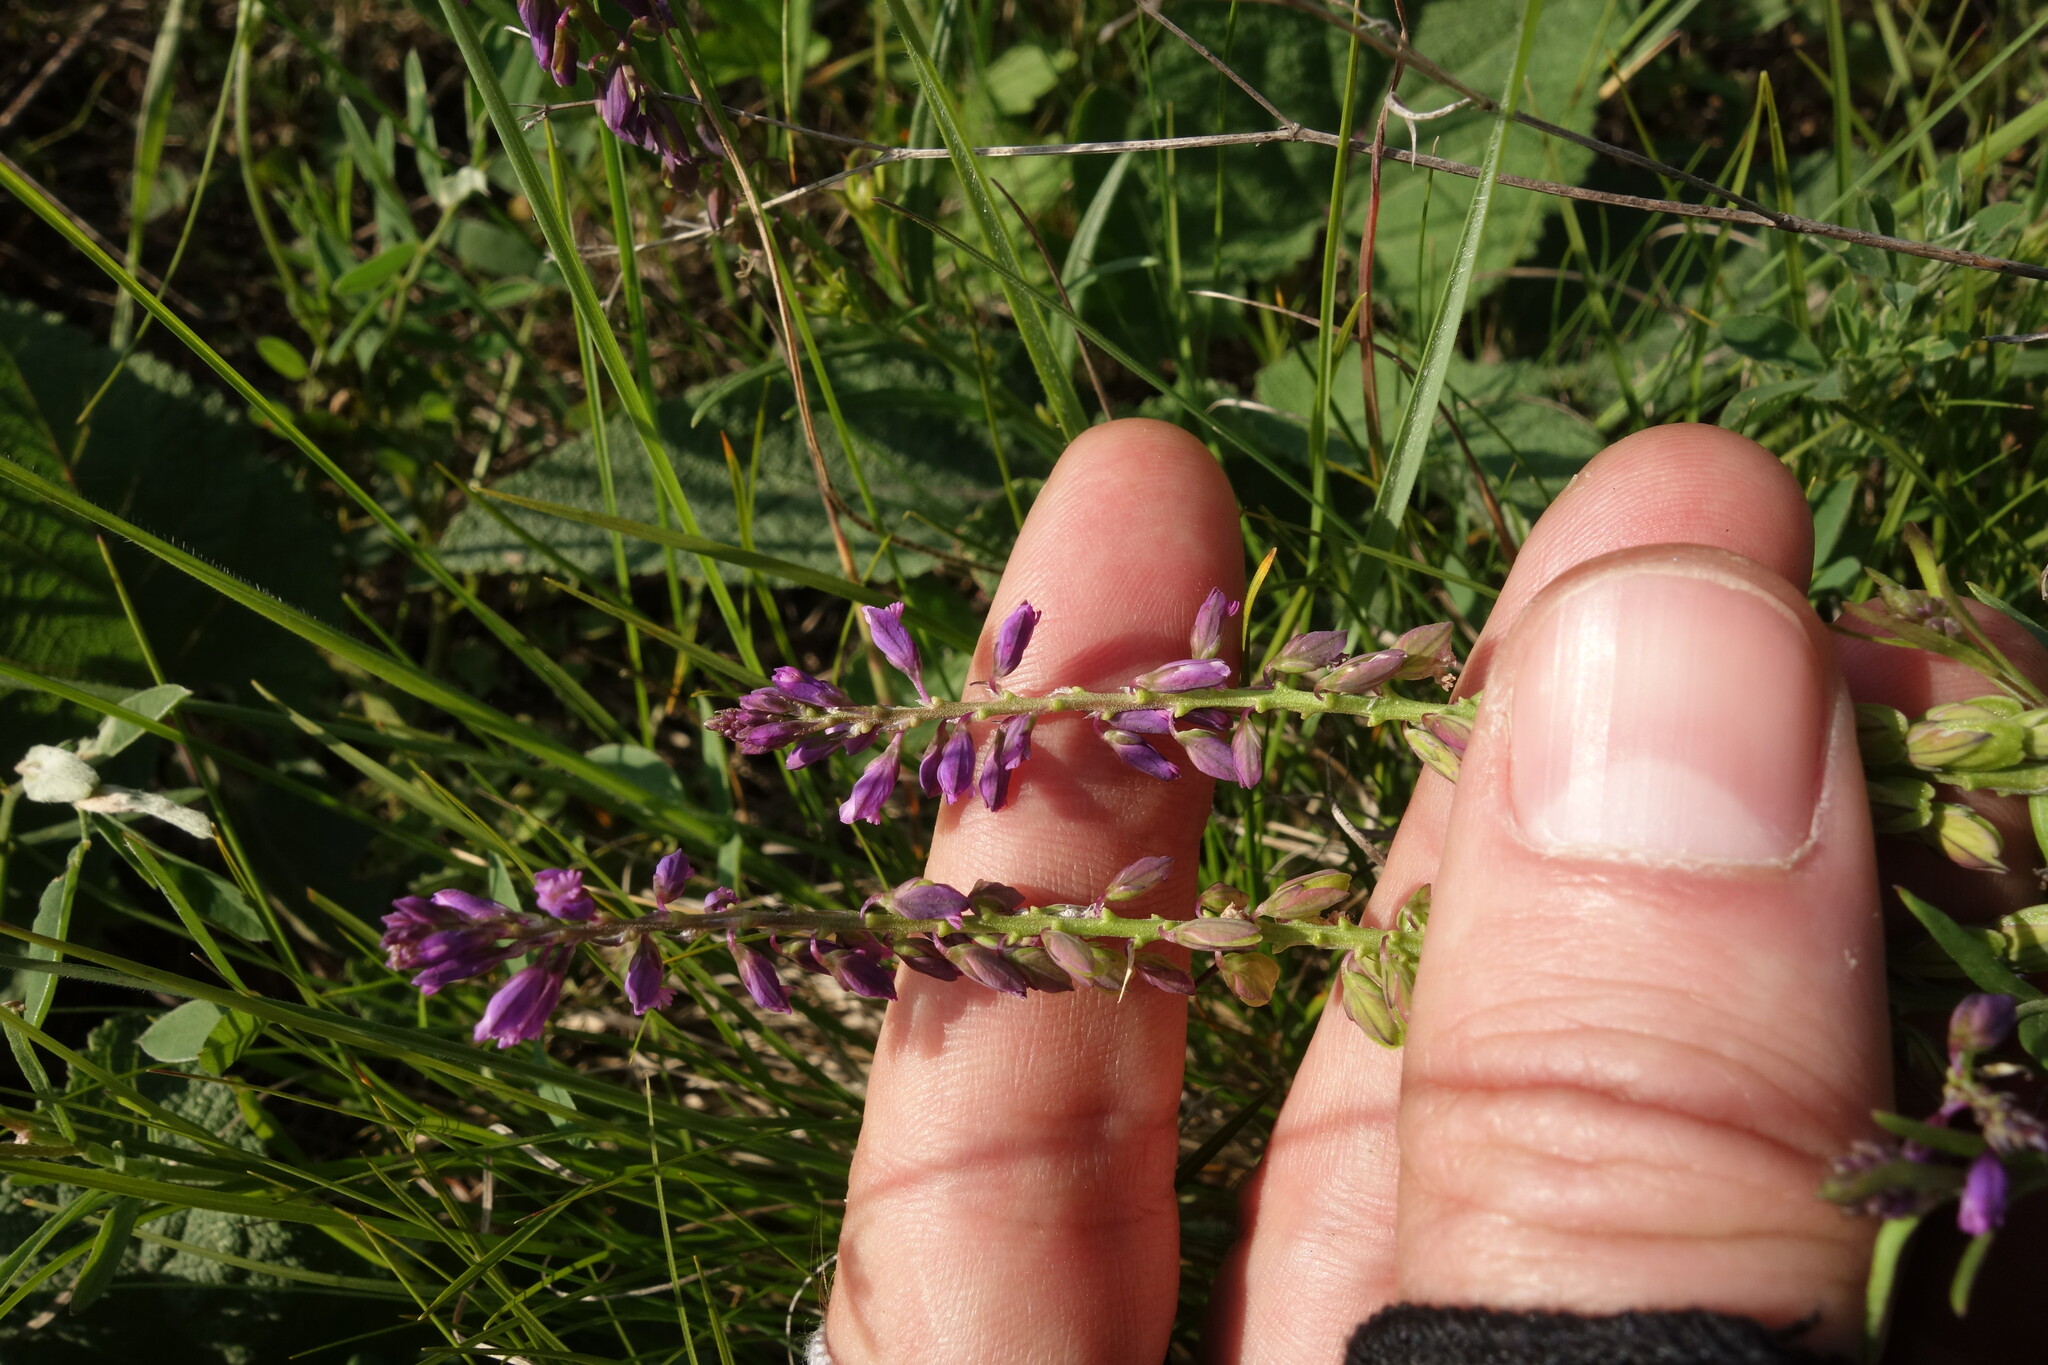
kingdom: Plantae
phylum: Tracheophyta
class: Magnoliopsida
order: Fabales
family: Polygalaceae
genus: Polygala
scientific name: Polygala comosa
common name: Tufted milkwort
